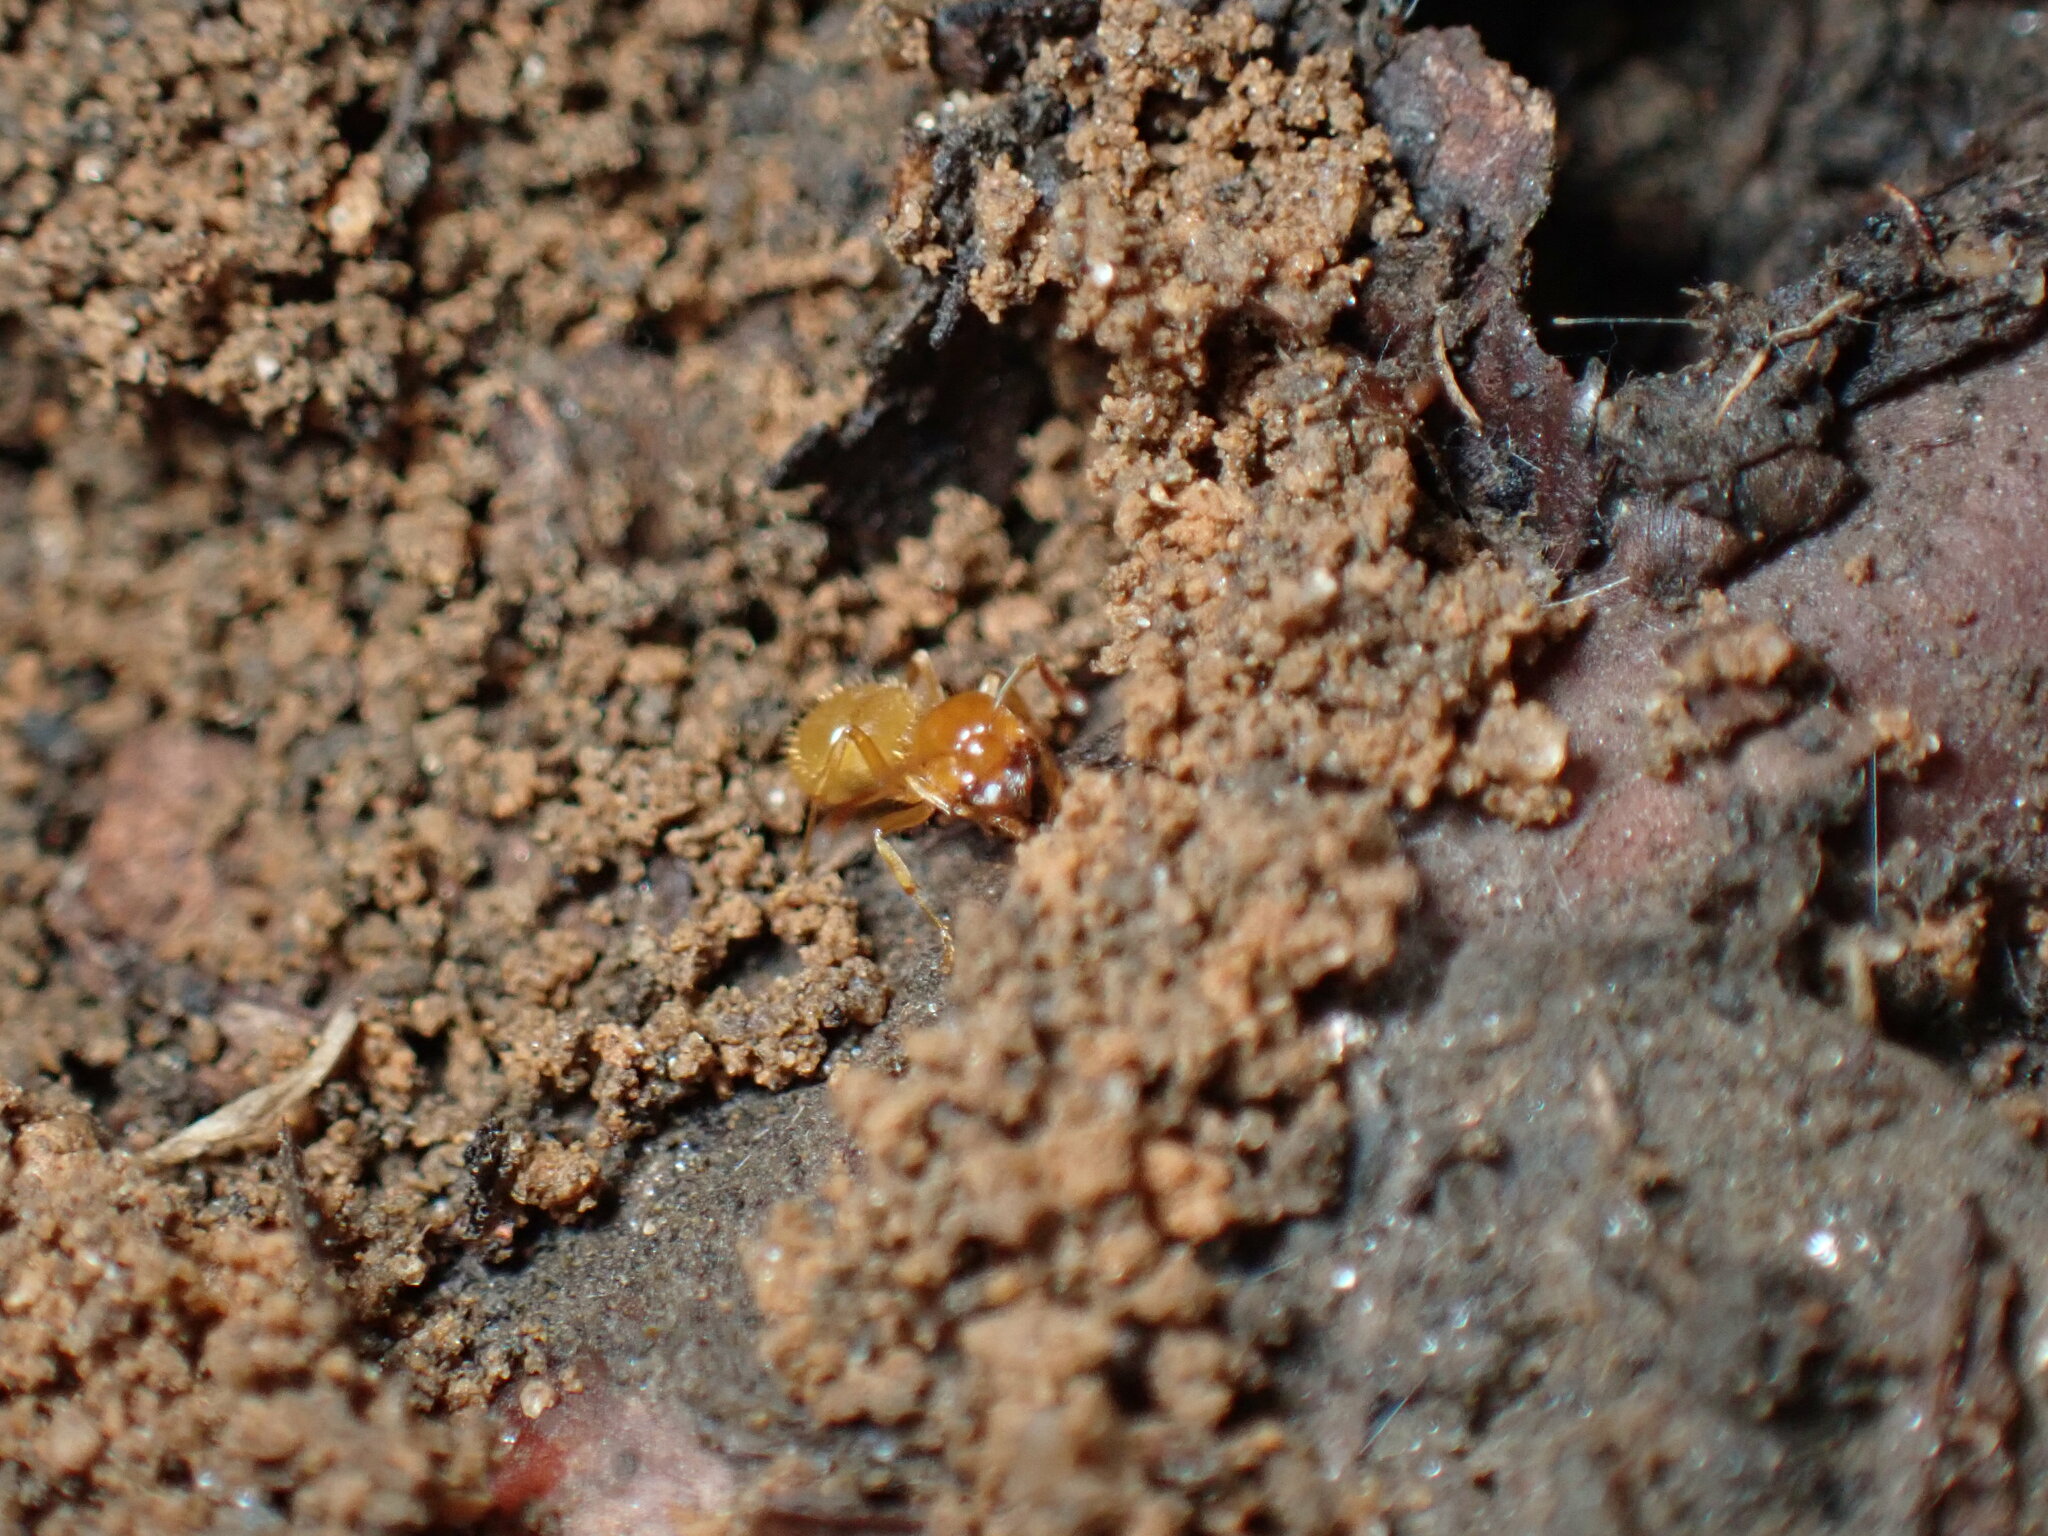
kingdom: Animalia
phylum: Arthropoda
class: Insecta
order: Hymenoptera
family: Formicidae
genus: Lasius
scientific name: Lasius claviger
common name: Common citronella ant
